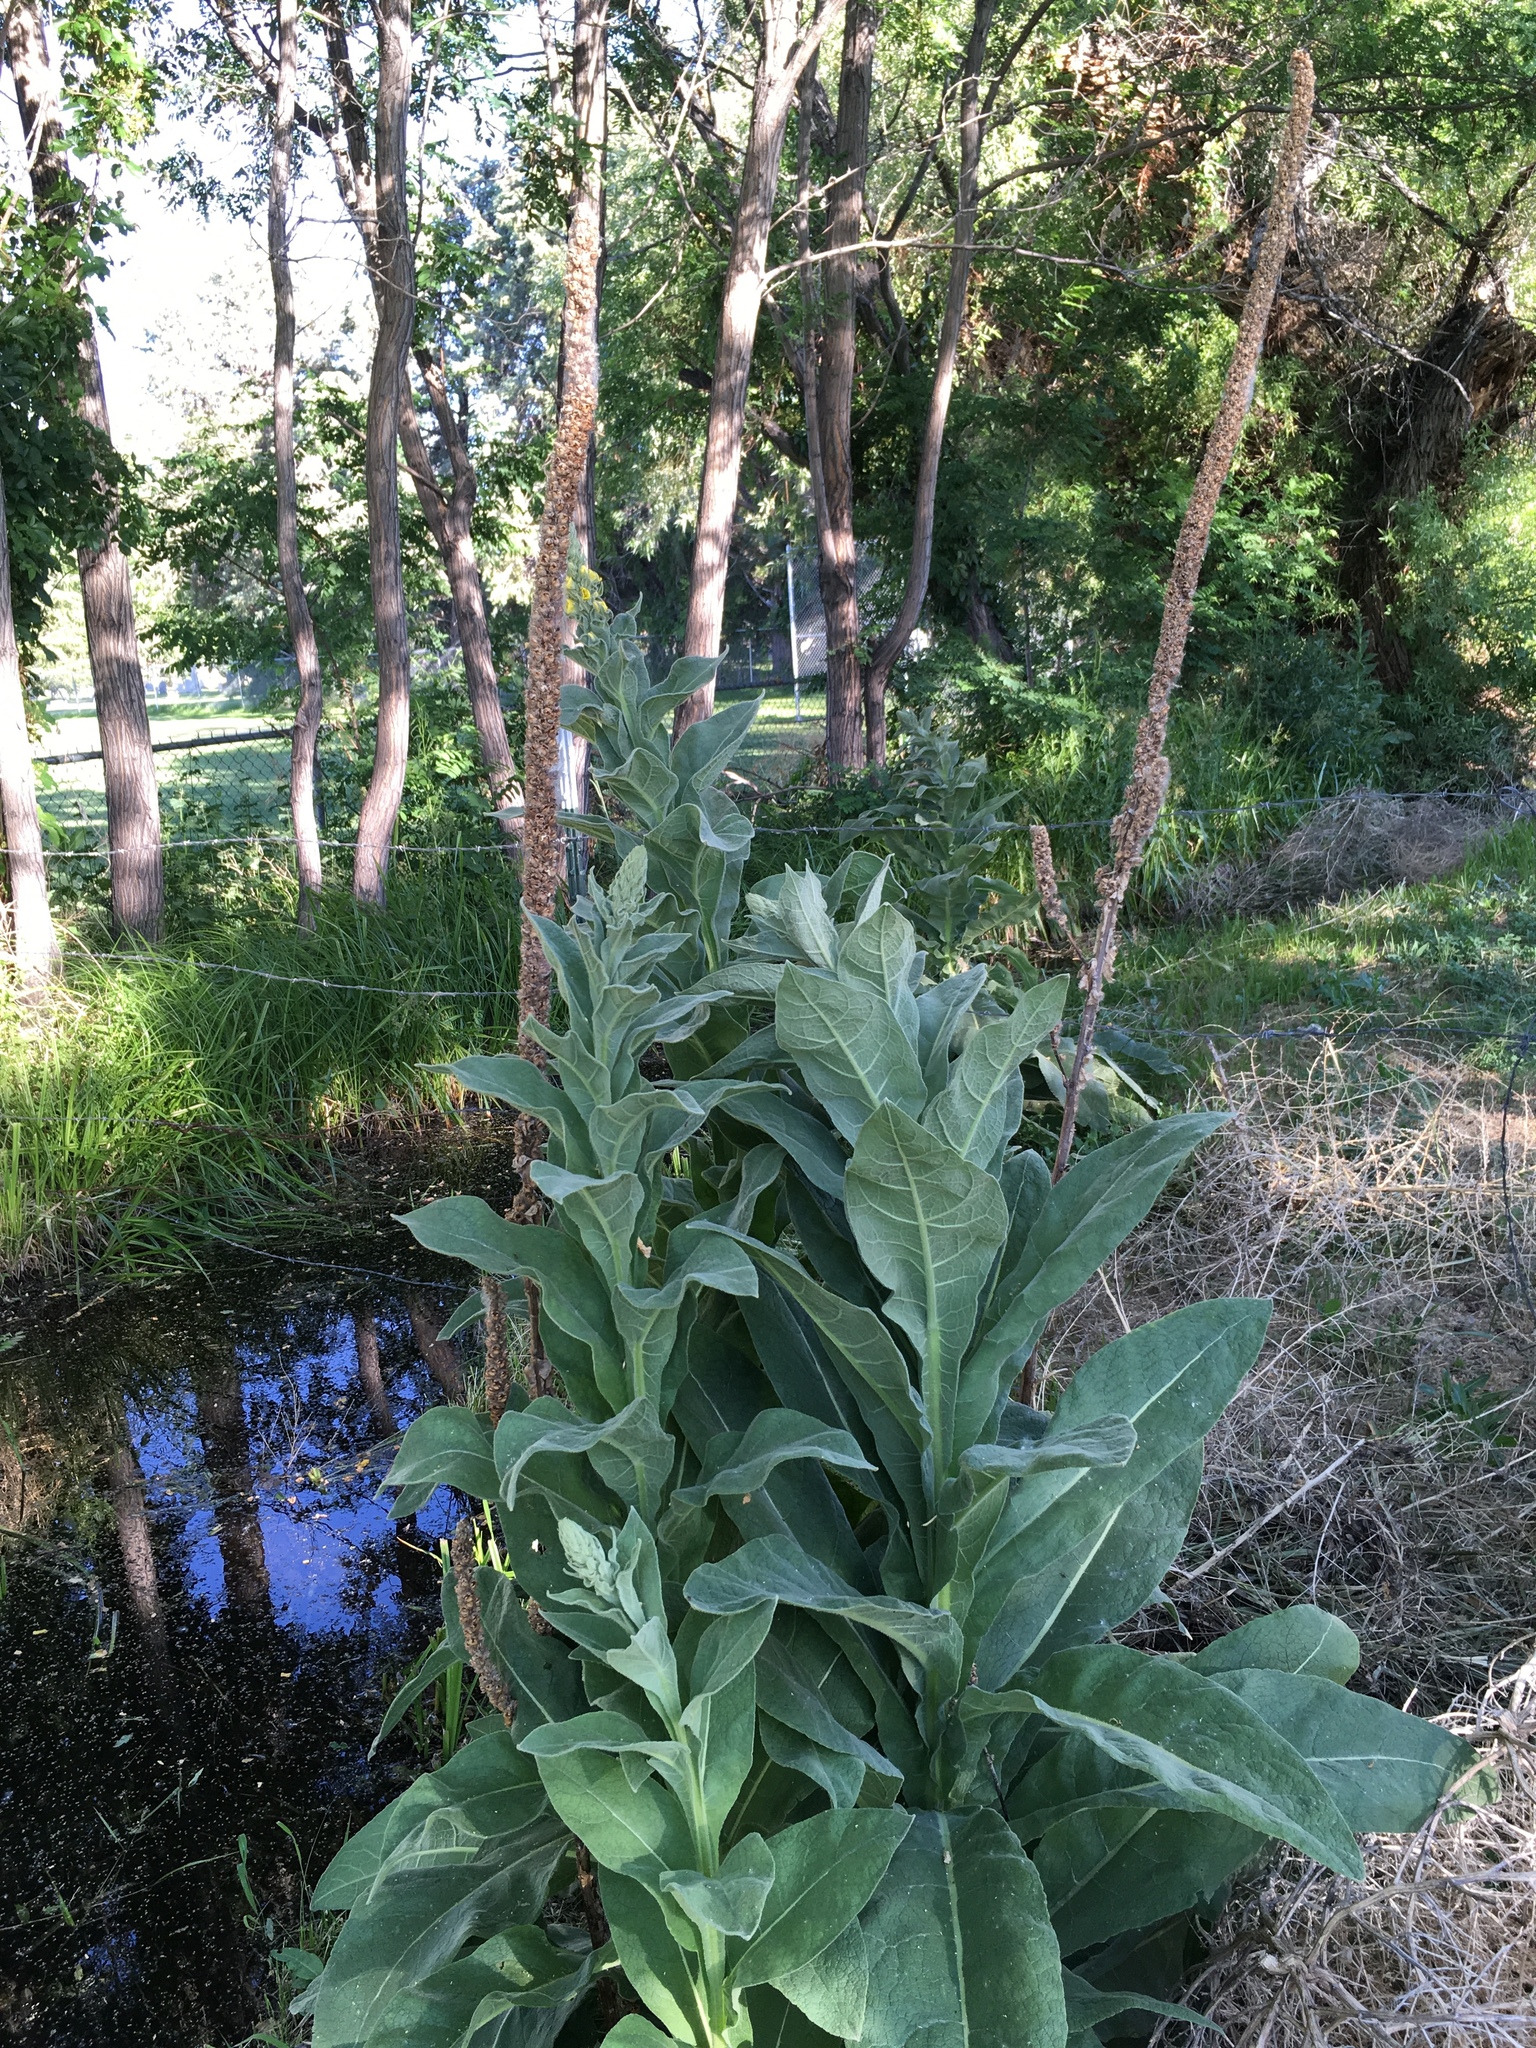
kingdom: Plantae
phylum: Tracheophyta
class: Magnoliopsida
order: Lamiales
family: Scrophulariaceae
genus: Verbascum
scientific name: Verbascum thapsus
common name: Common mullein
